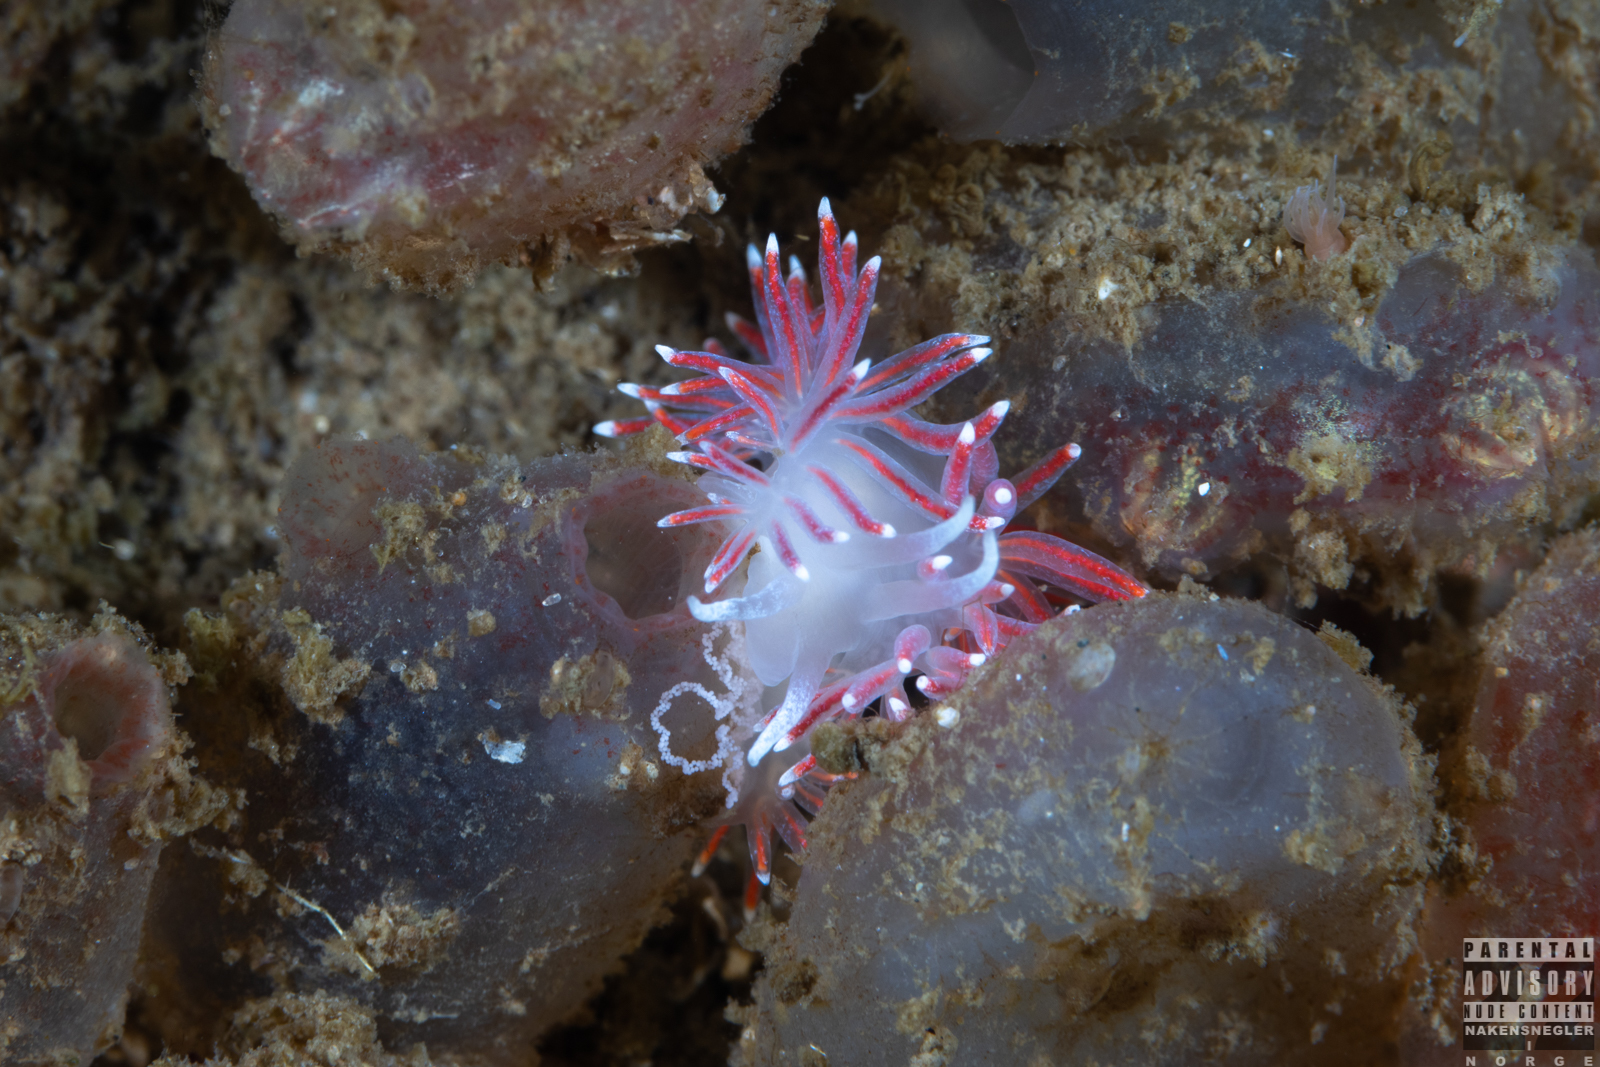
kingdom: Animalia
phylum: Mollusca
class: Gastropoda
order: Nudibranchia
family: Flabellinidae
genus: Carronella
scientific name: Carronella pellucida
